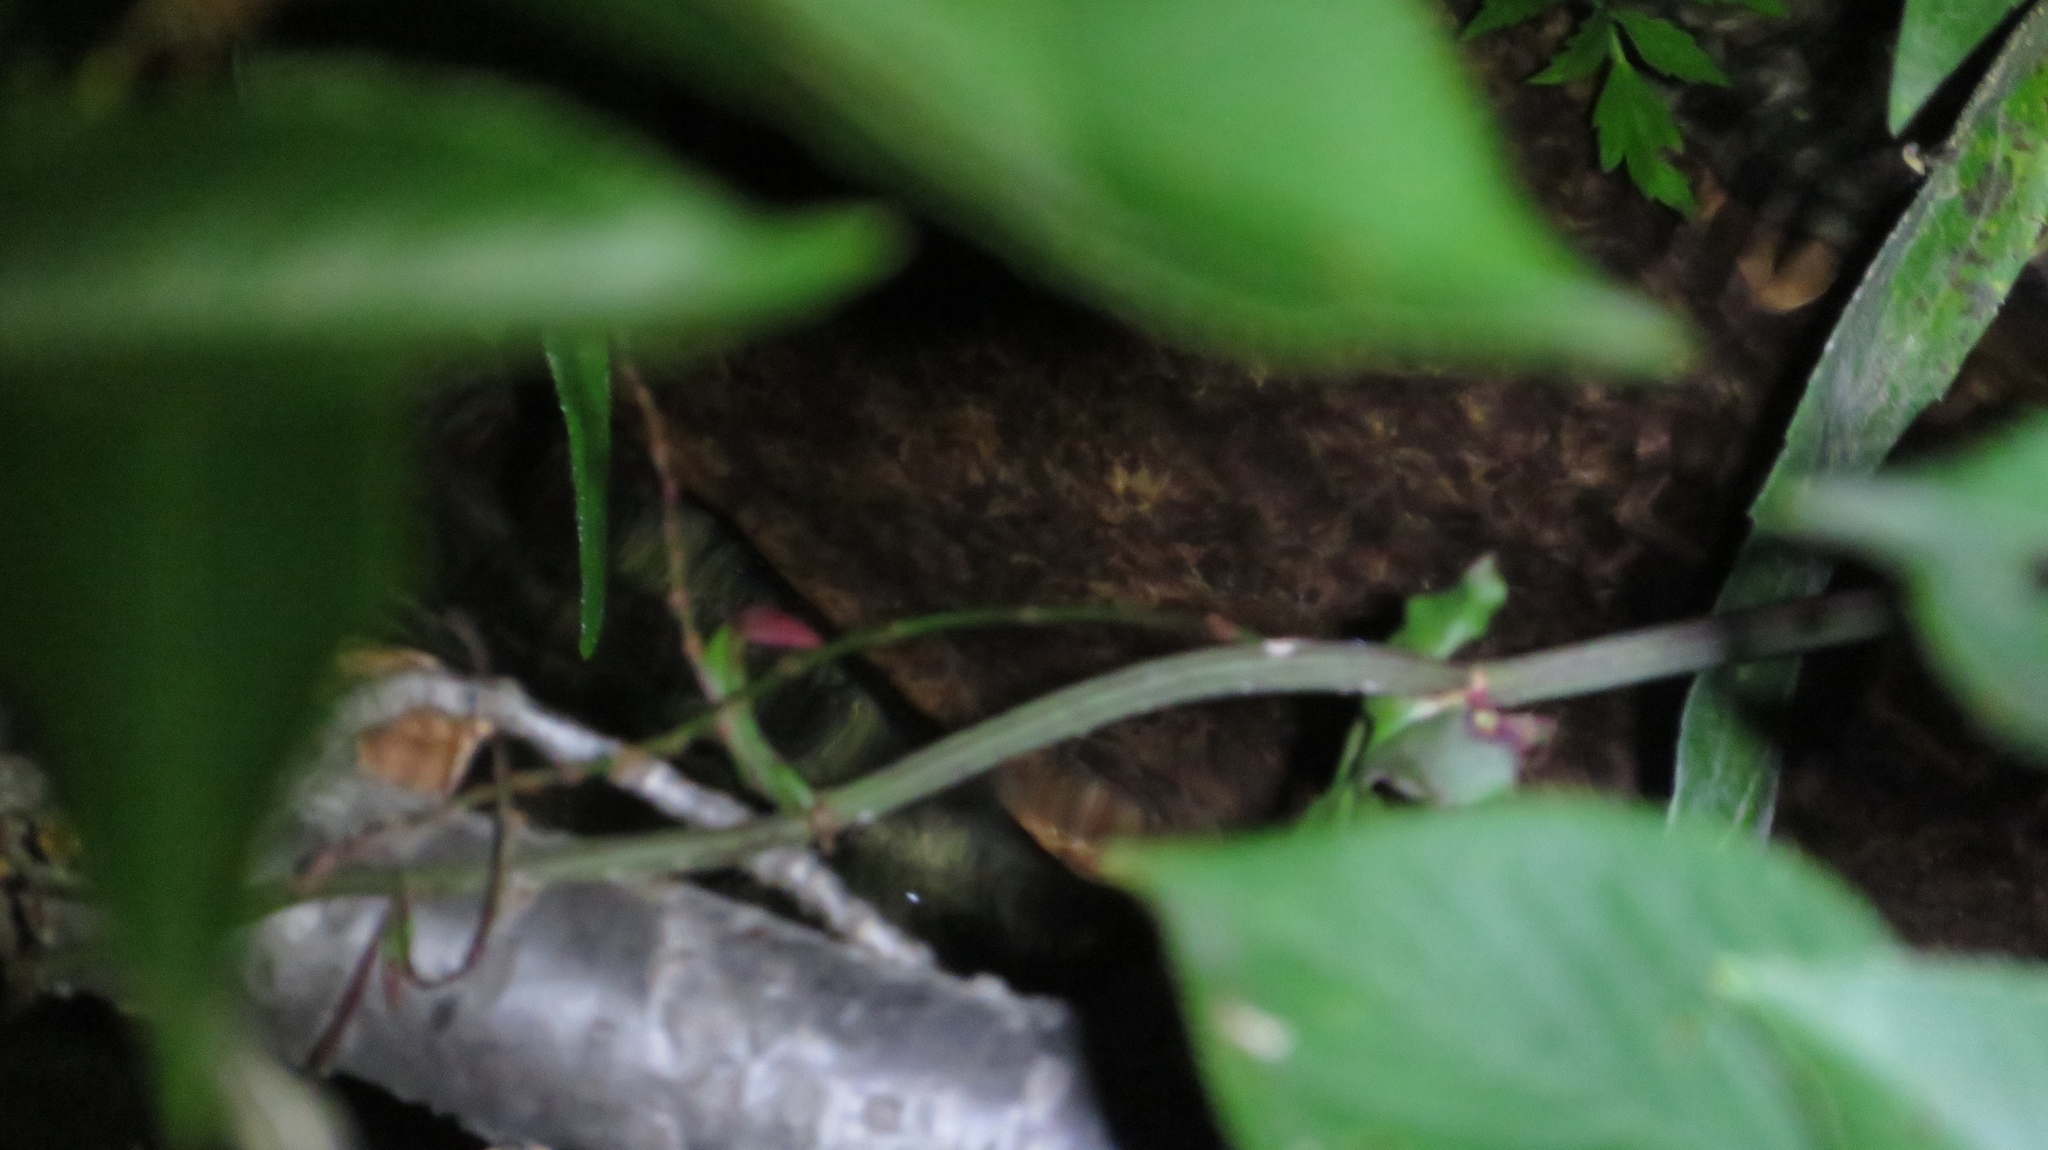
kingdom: Animalia
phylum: Chordata
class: Amphibia
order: Caudata
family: Cryptobranchidae
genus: Andrias
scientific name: Andrias japonicus
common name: Japanese giant salamander
